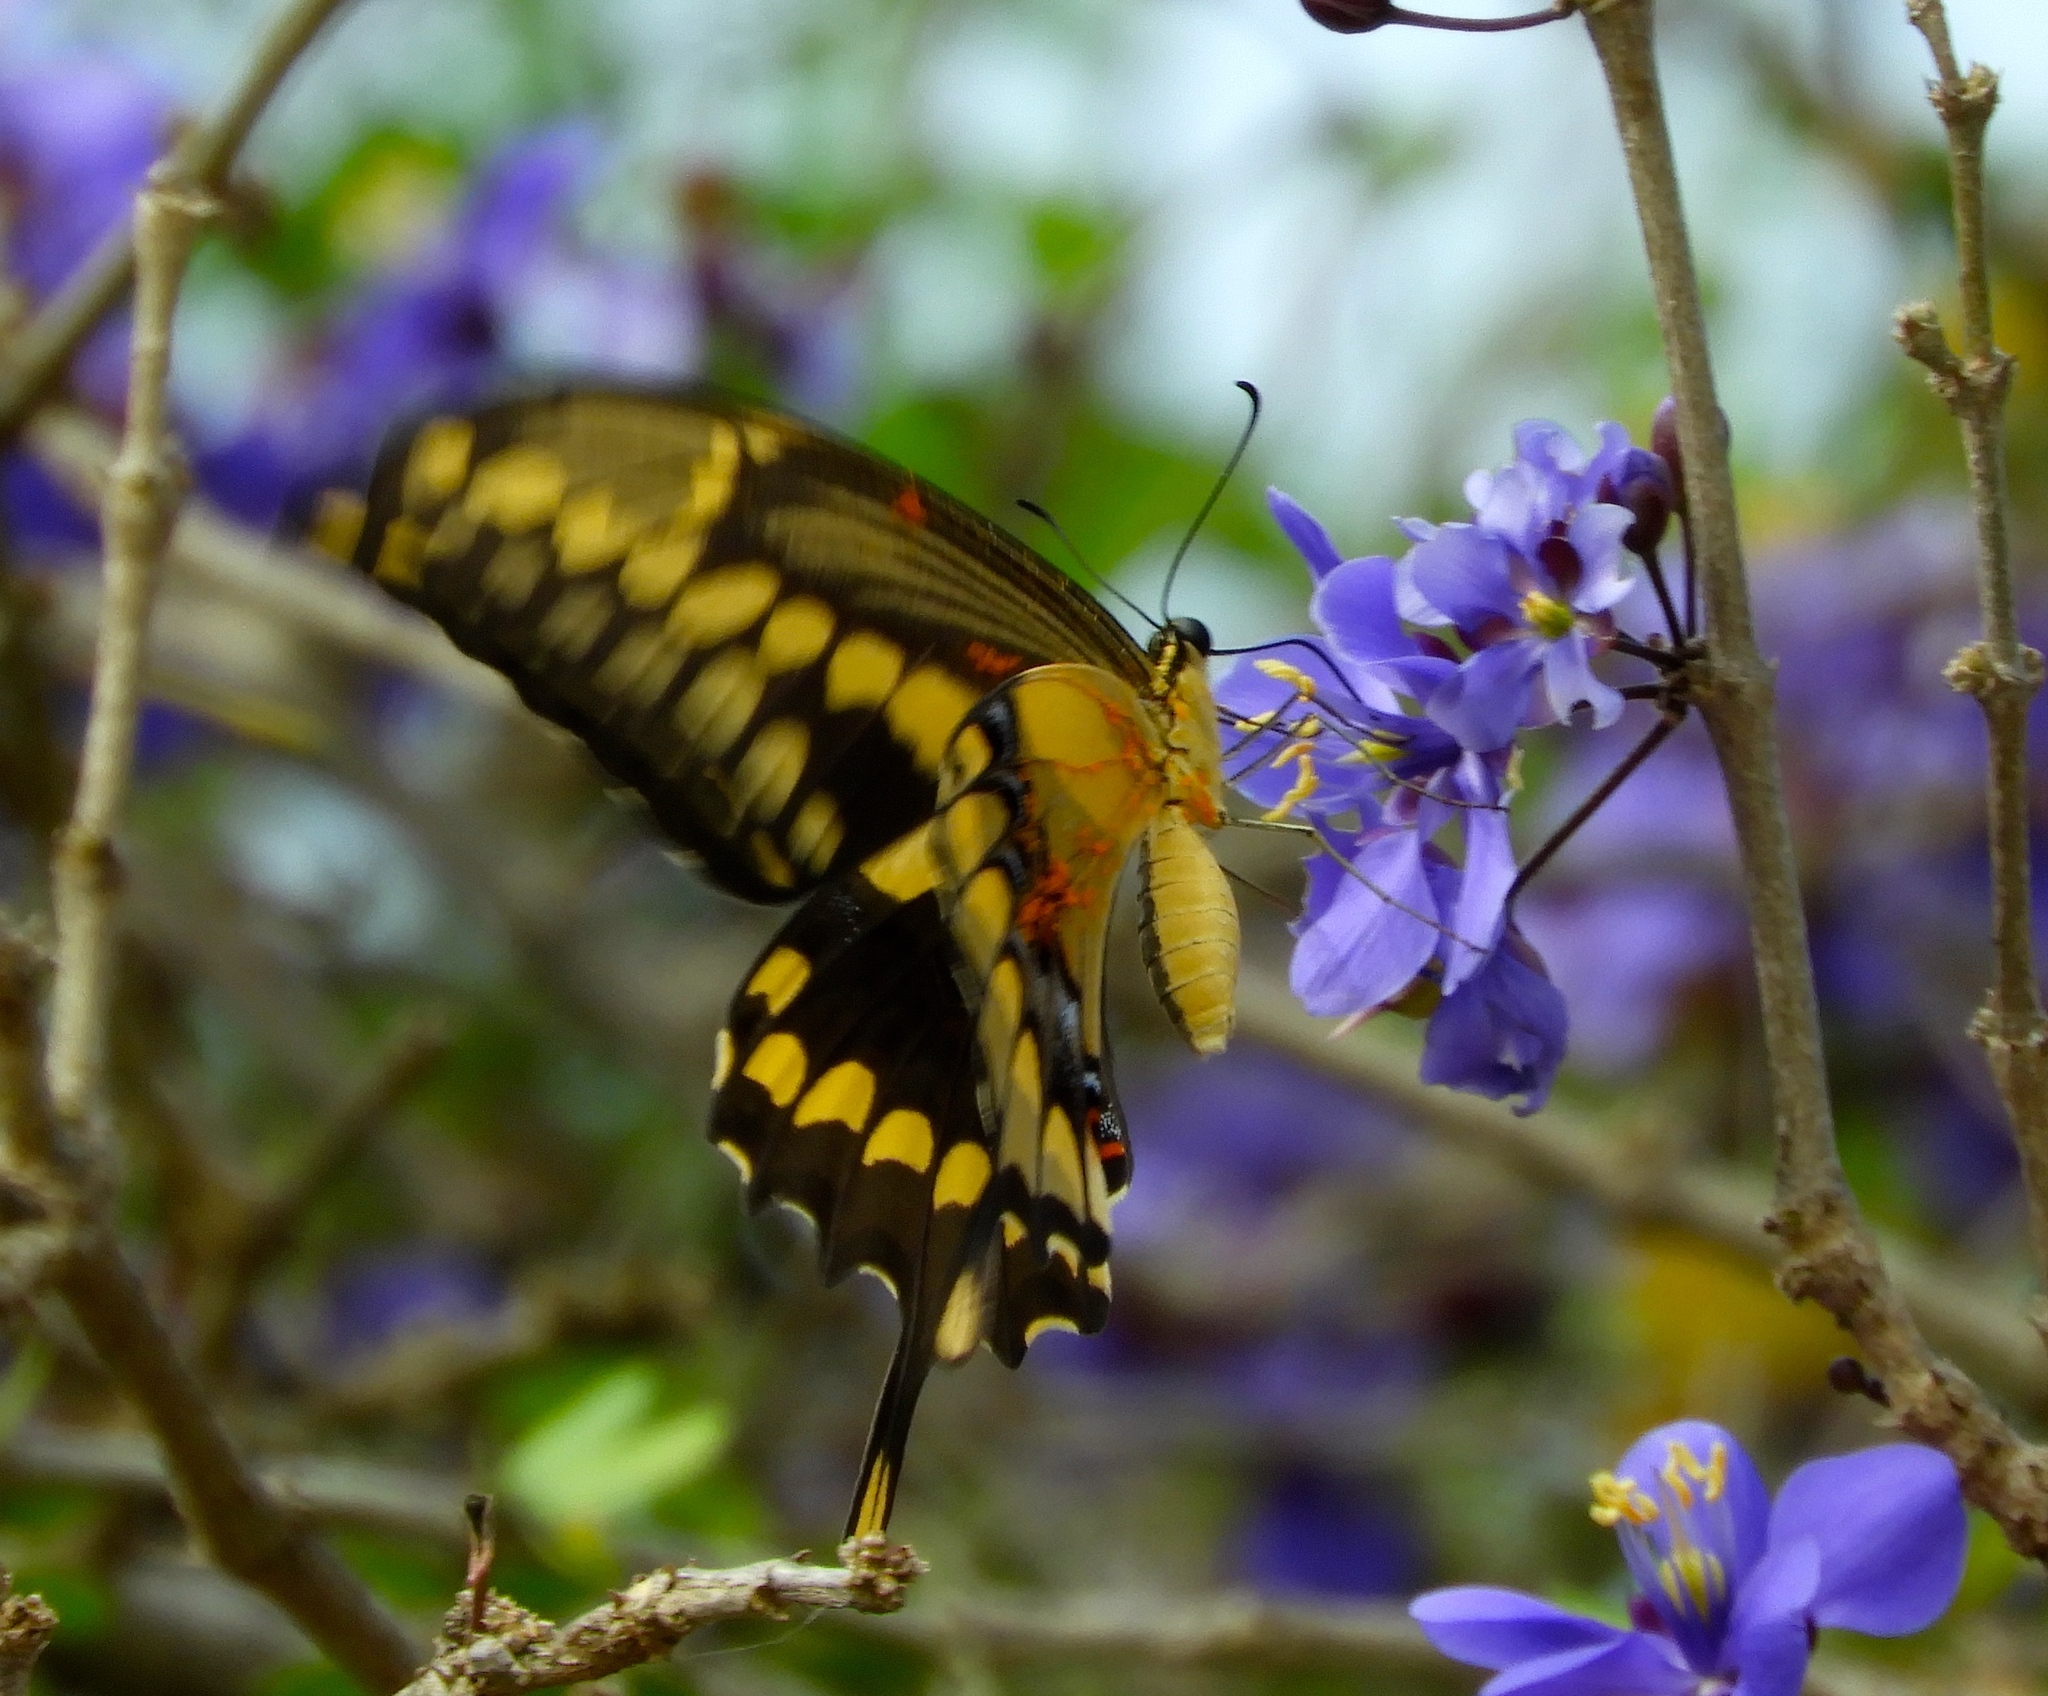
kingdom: Animalia
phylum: Arthropoda
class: Insecta
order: Lepidoptera
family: Papilionidae
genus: Papilio
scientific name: Papilio rumiko
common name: Western giant swallowtail
